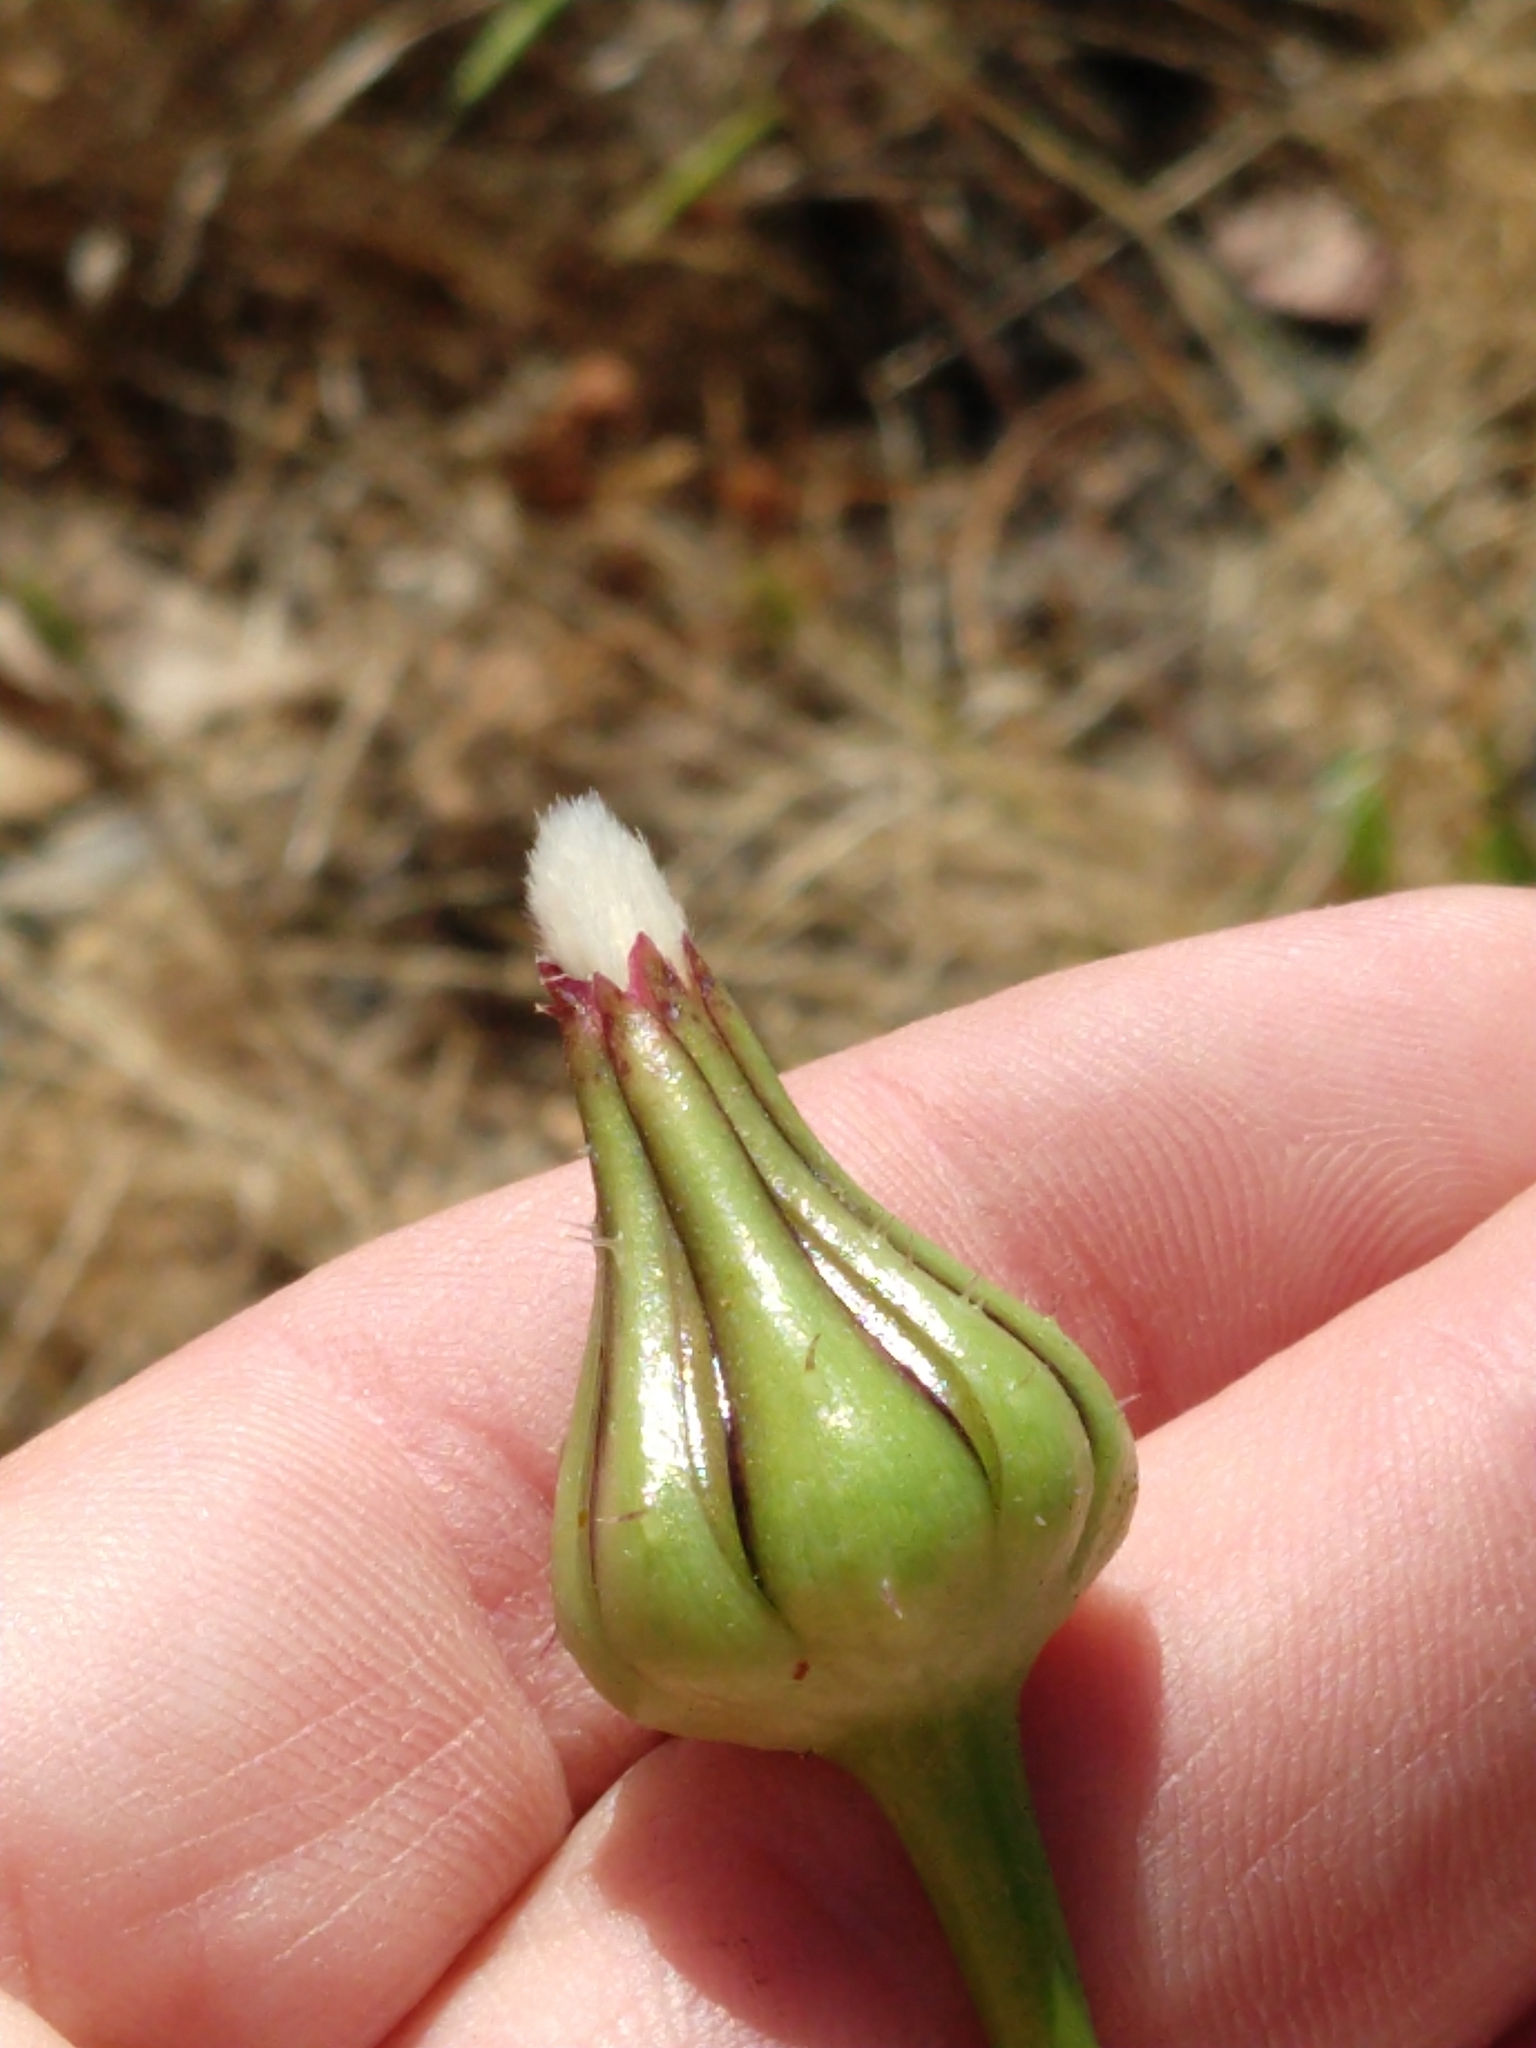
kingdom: Plantae
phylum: Tracheophyta
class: Magnoliopsida
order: Asterales
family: Asteraceae
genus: Urospermum
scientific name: Urospermum picroides
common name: False hawkbit
